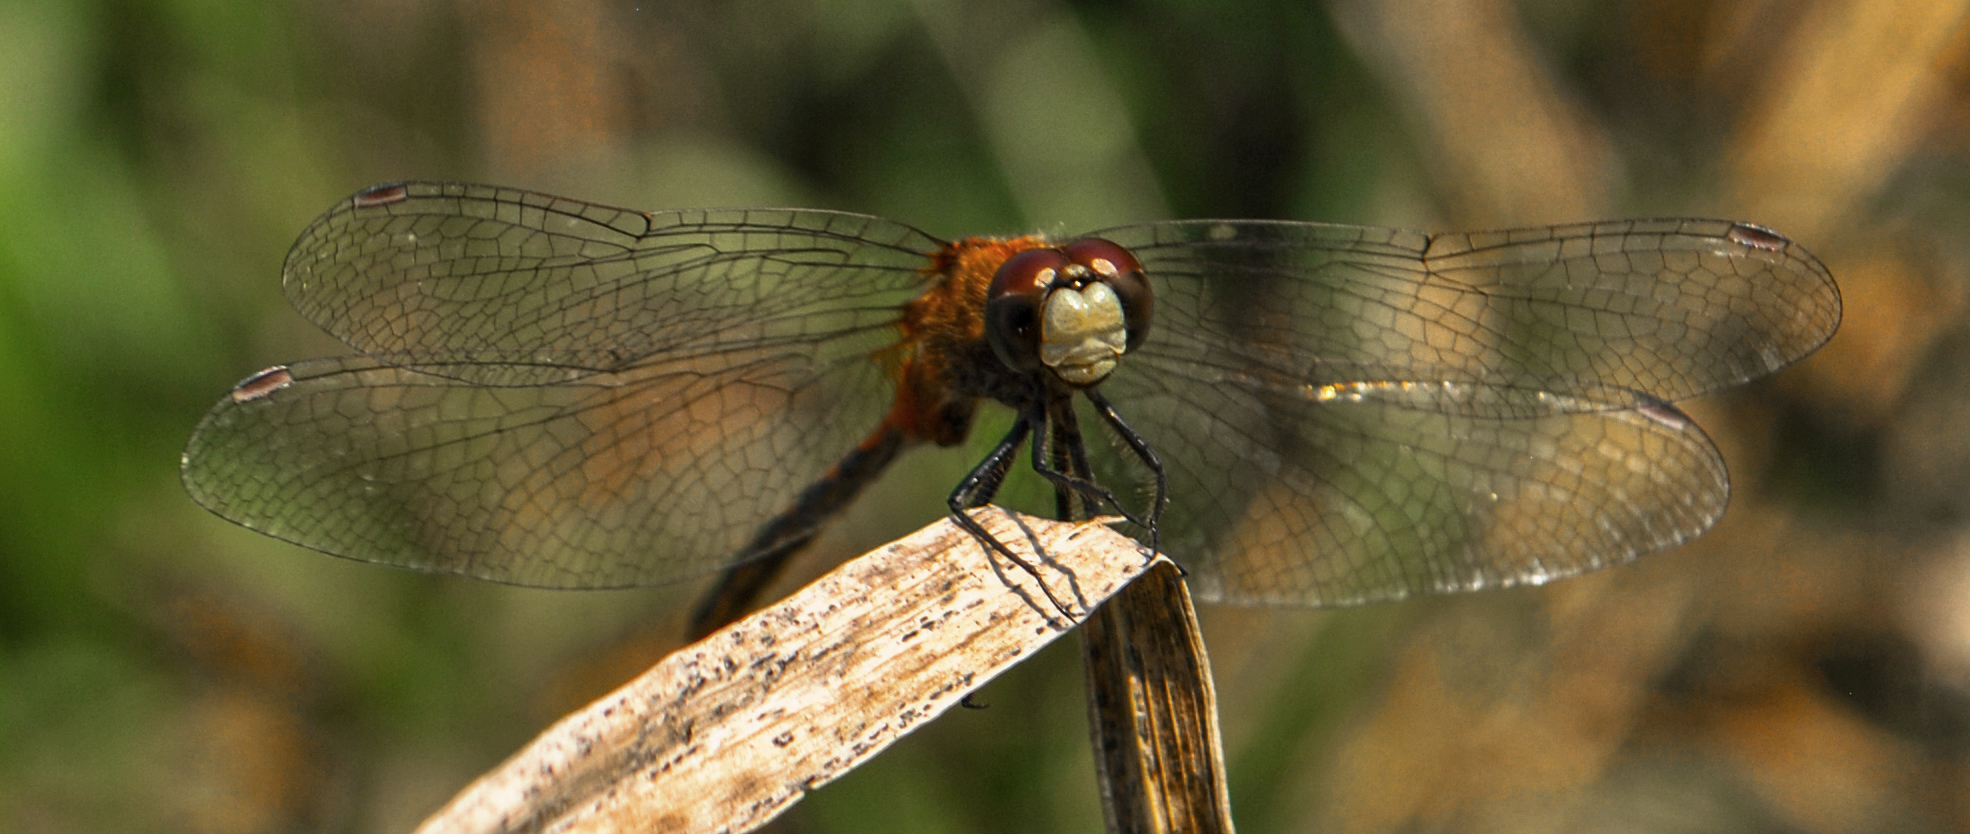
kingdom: Animalia
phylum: Arthropoda
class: Insecta
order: Odonata
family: Libellulidae
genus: Sympetrum
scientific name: Sympetrum obtrusum
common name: White-faced meadowhawk
